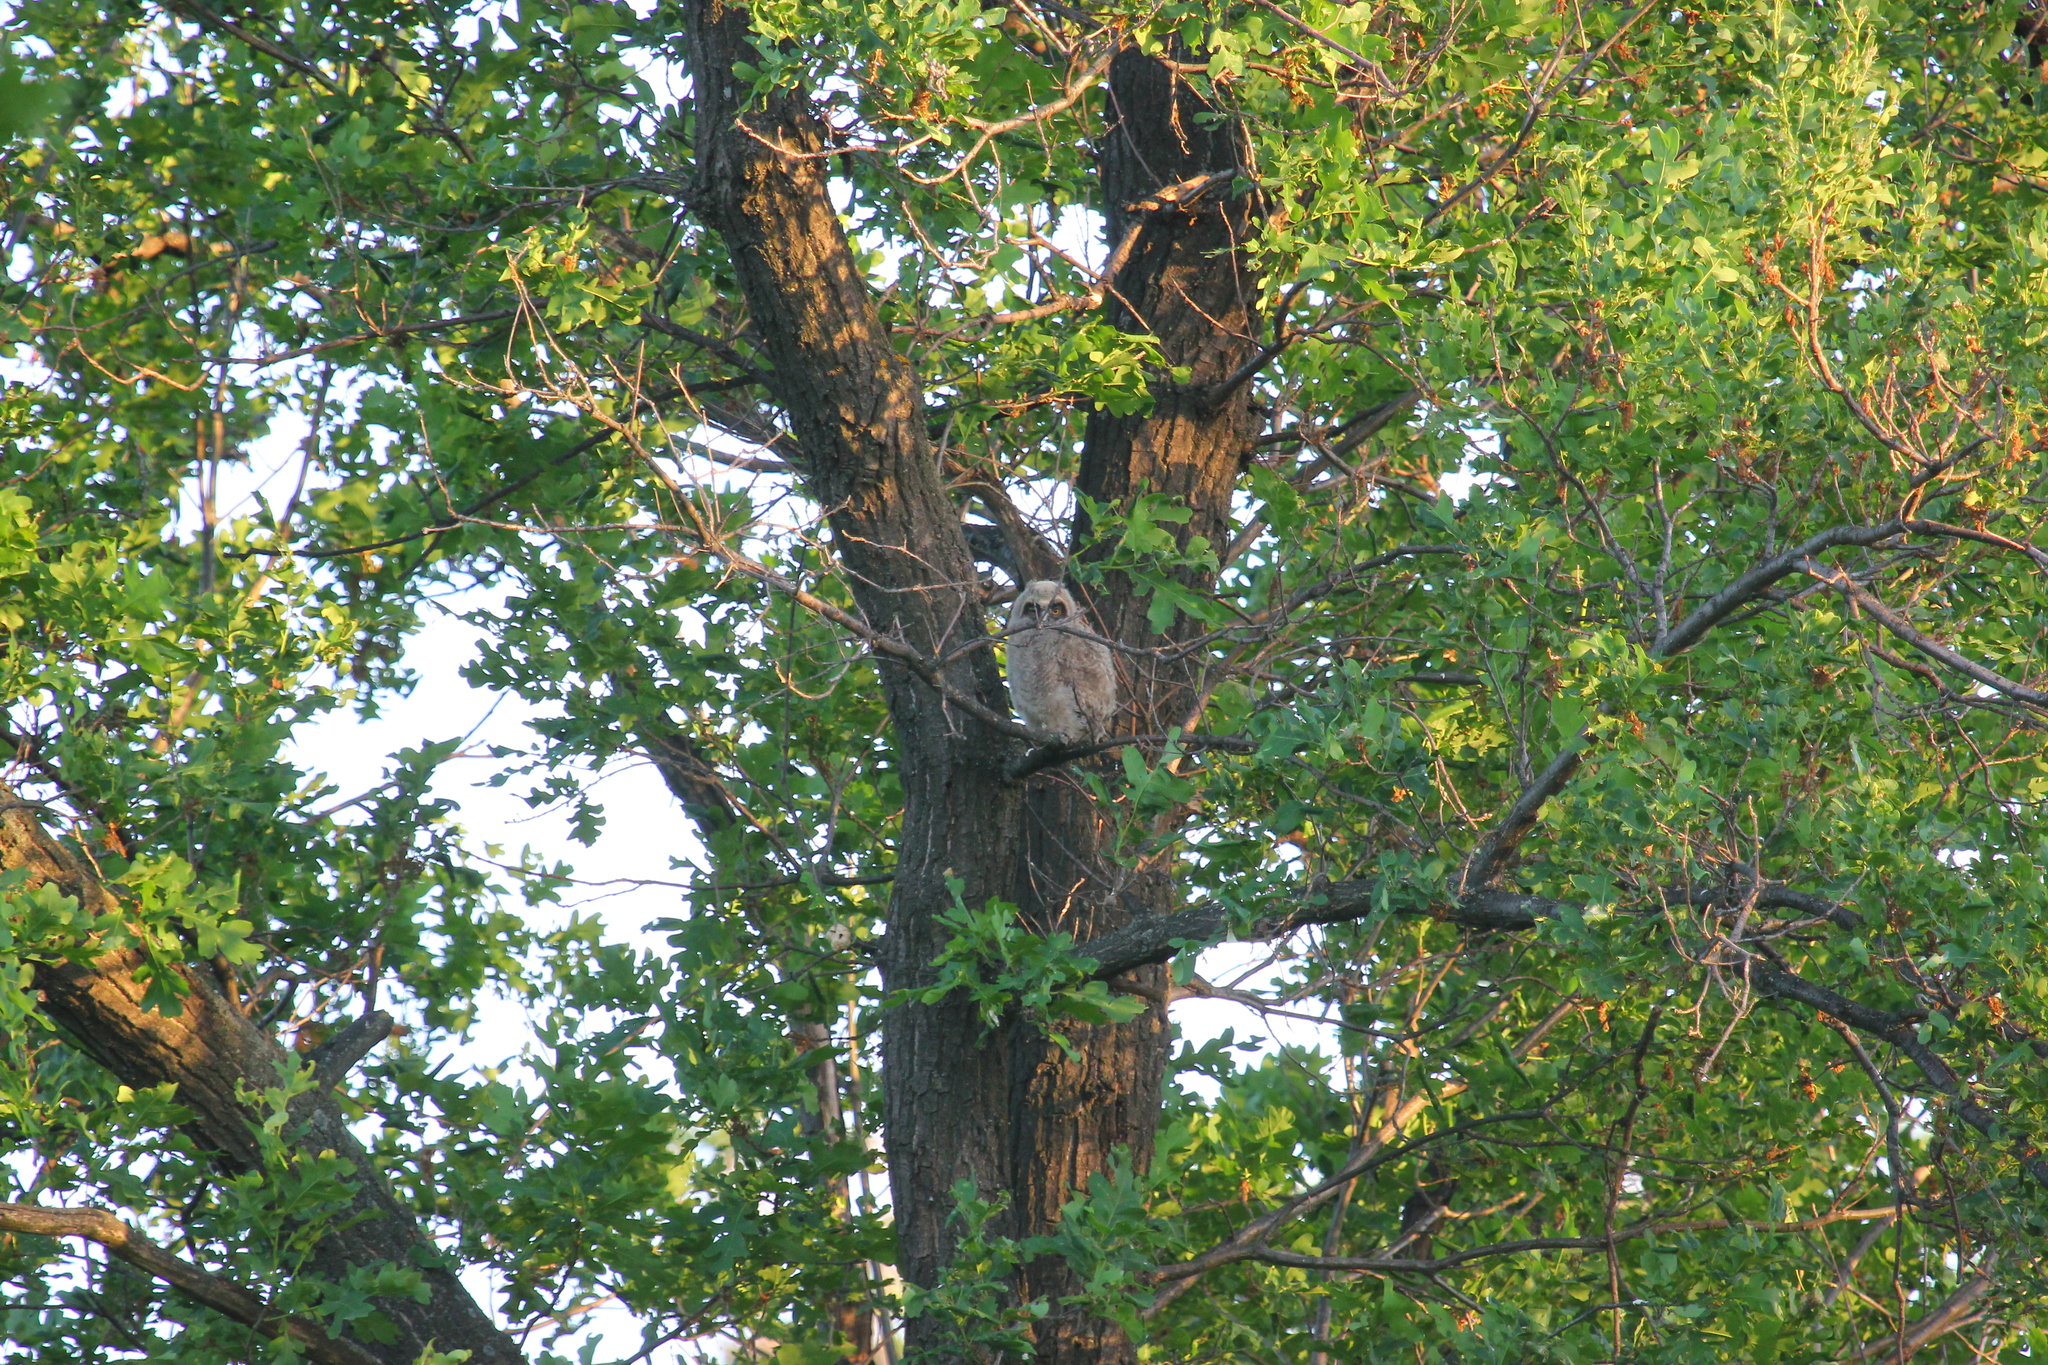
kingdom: Animalia
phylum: Chordata
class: Aves
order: Strigiformes
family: Strigidae
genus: Asio
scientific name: Asio otus
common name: Long-eared owl
